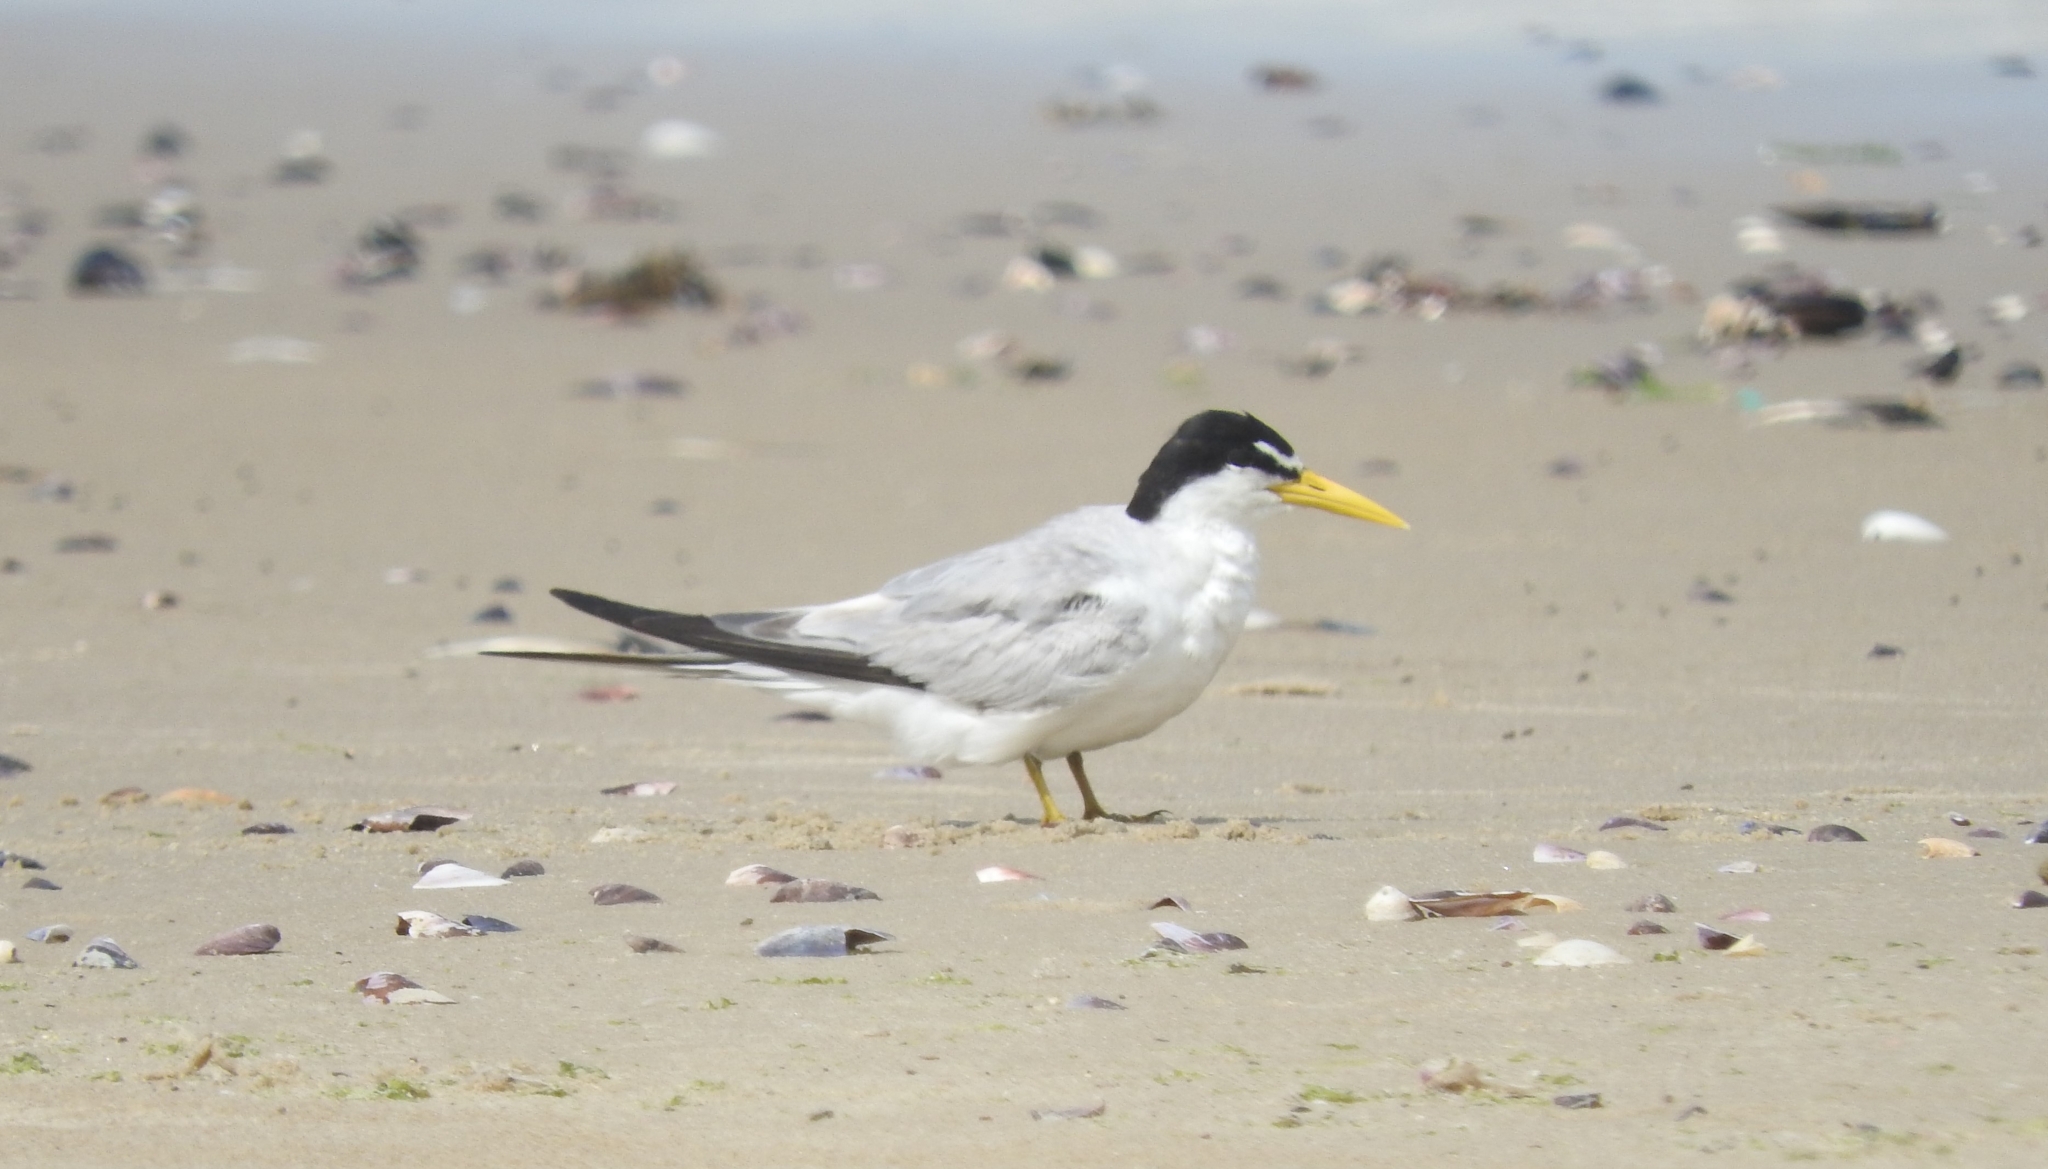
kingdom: Animalia
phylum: Chordata
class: Aves
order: Charadriiformes
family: Laridae
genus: Sternula
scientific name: Sternula superciliaris
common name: Yellow-billed tern
